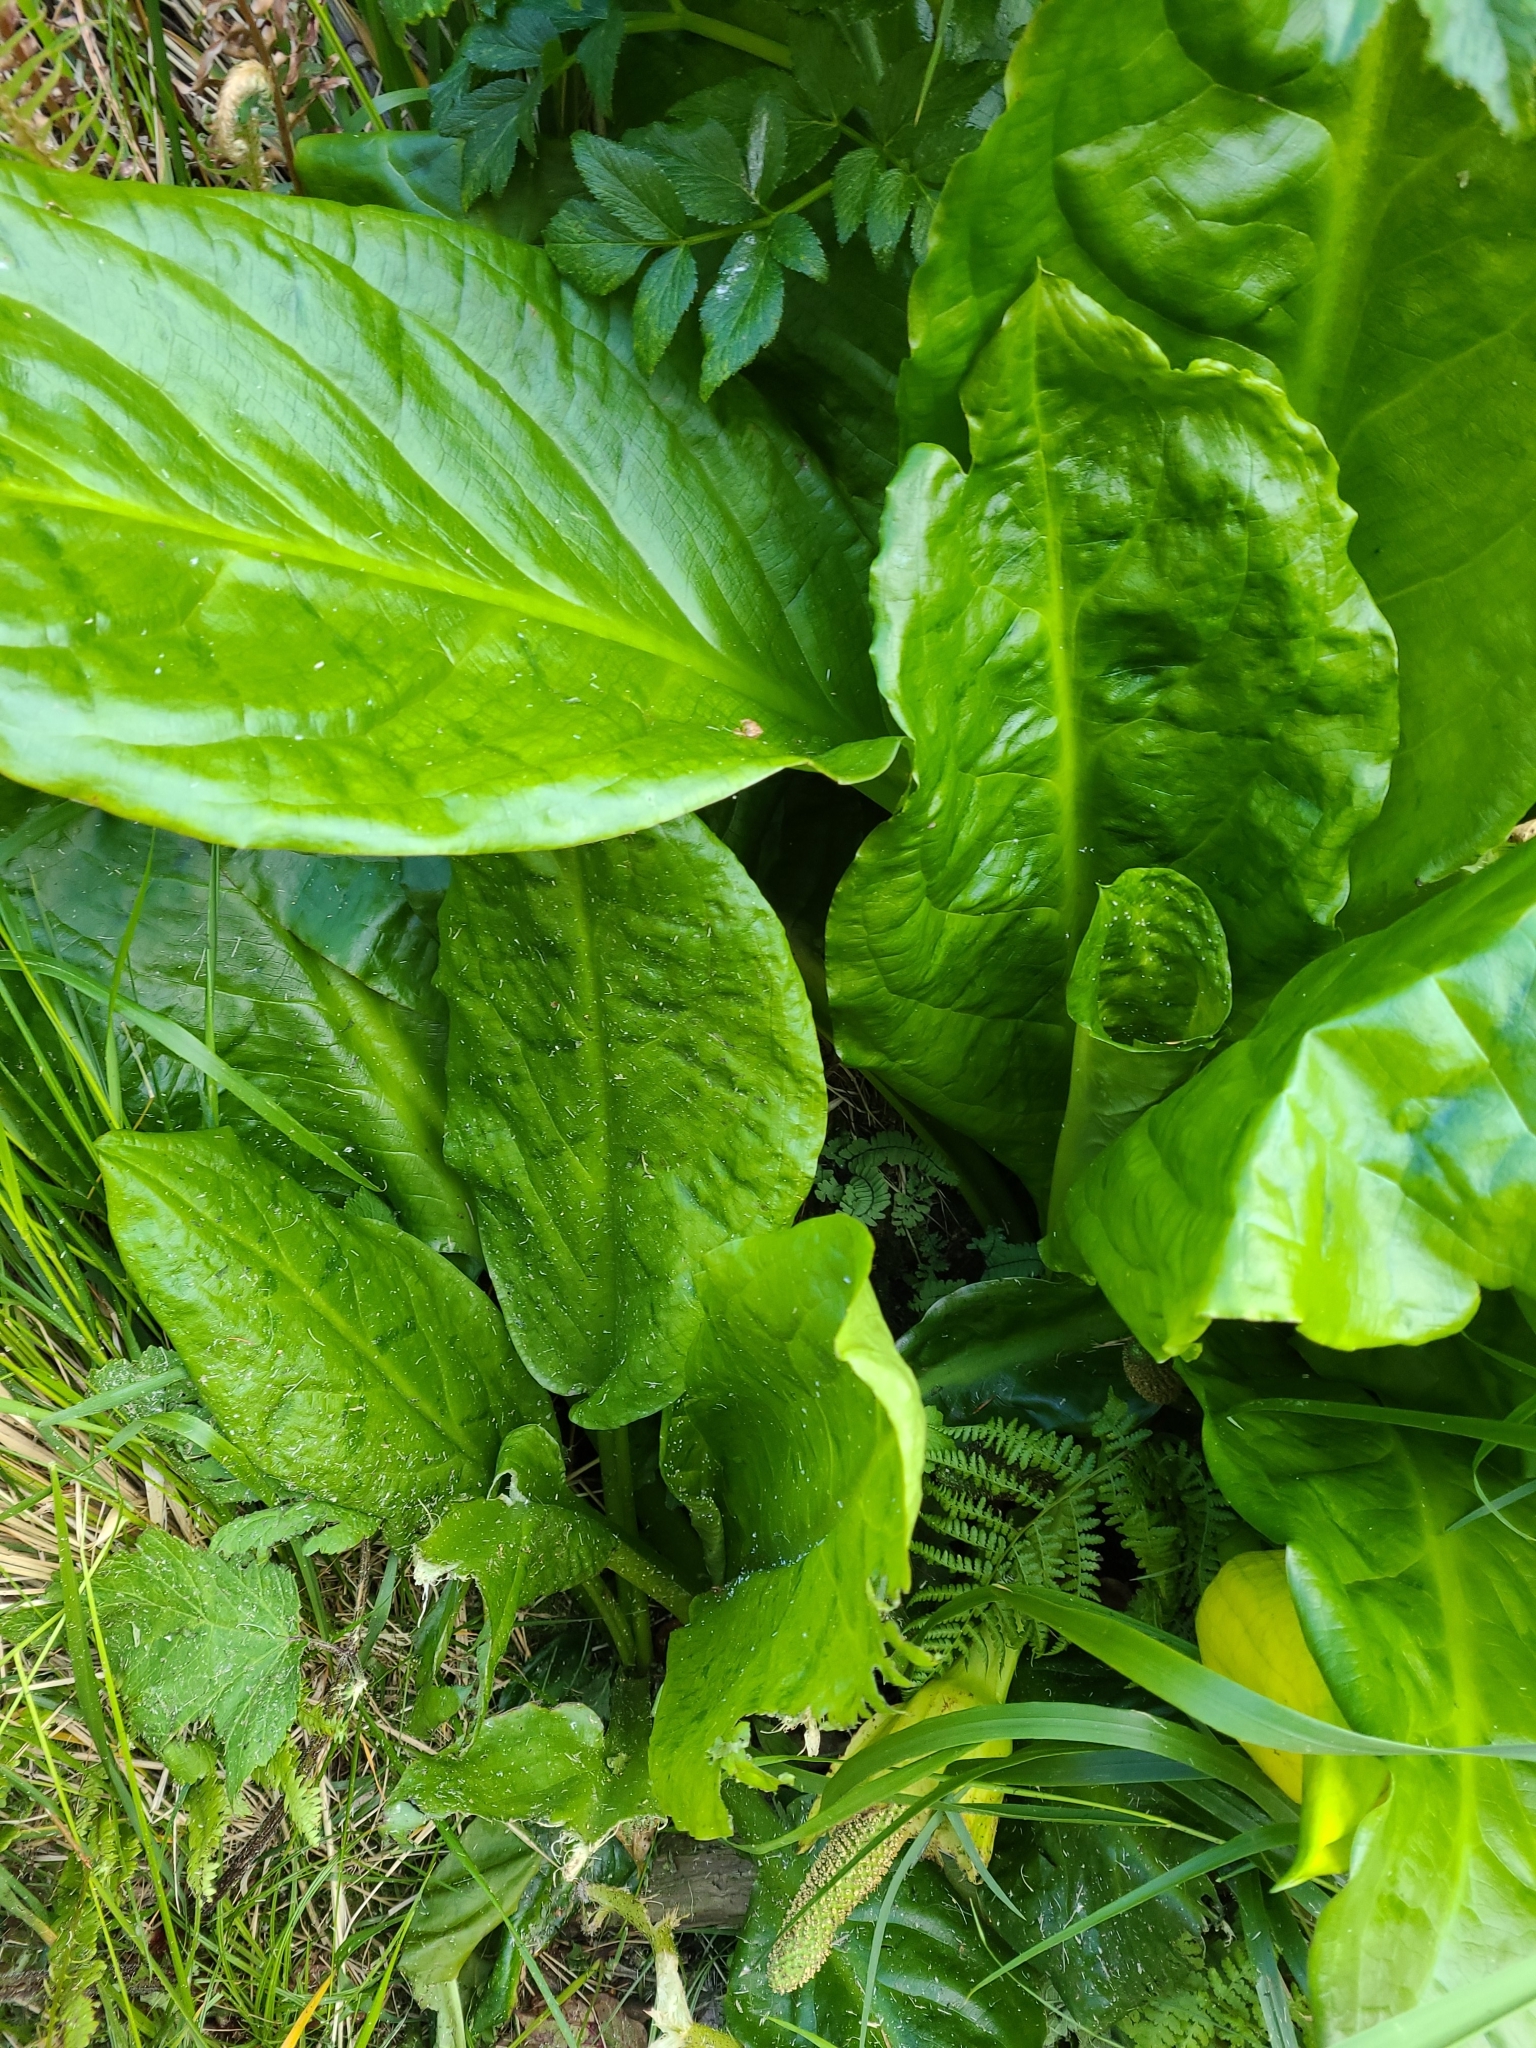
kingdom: Plantae
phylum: Tracheophyta
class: Liliopsida
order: Alismatales
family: Araceae
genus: Lysichiton
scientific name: Lysichiton americanus
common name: American skunk cabbage
